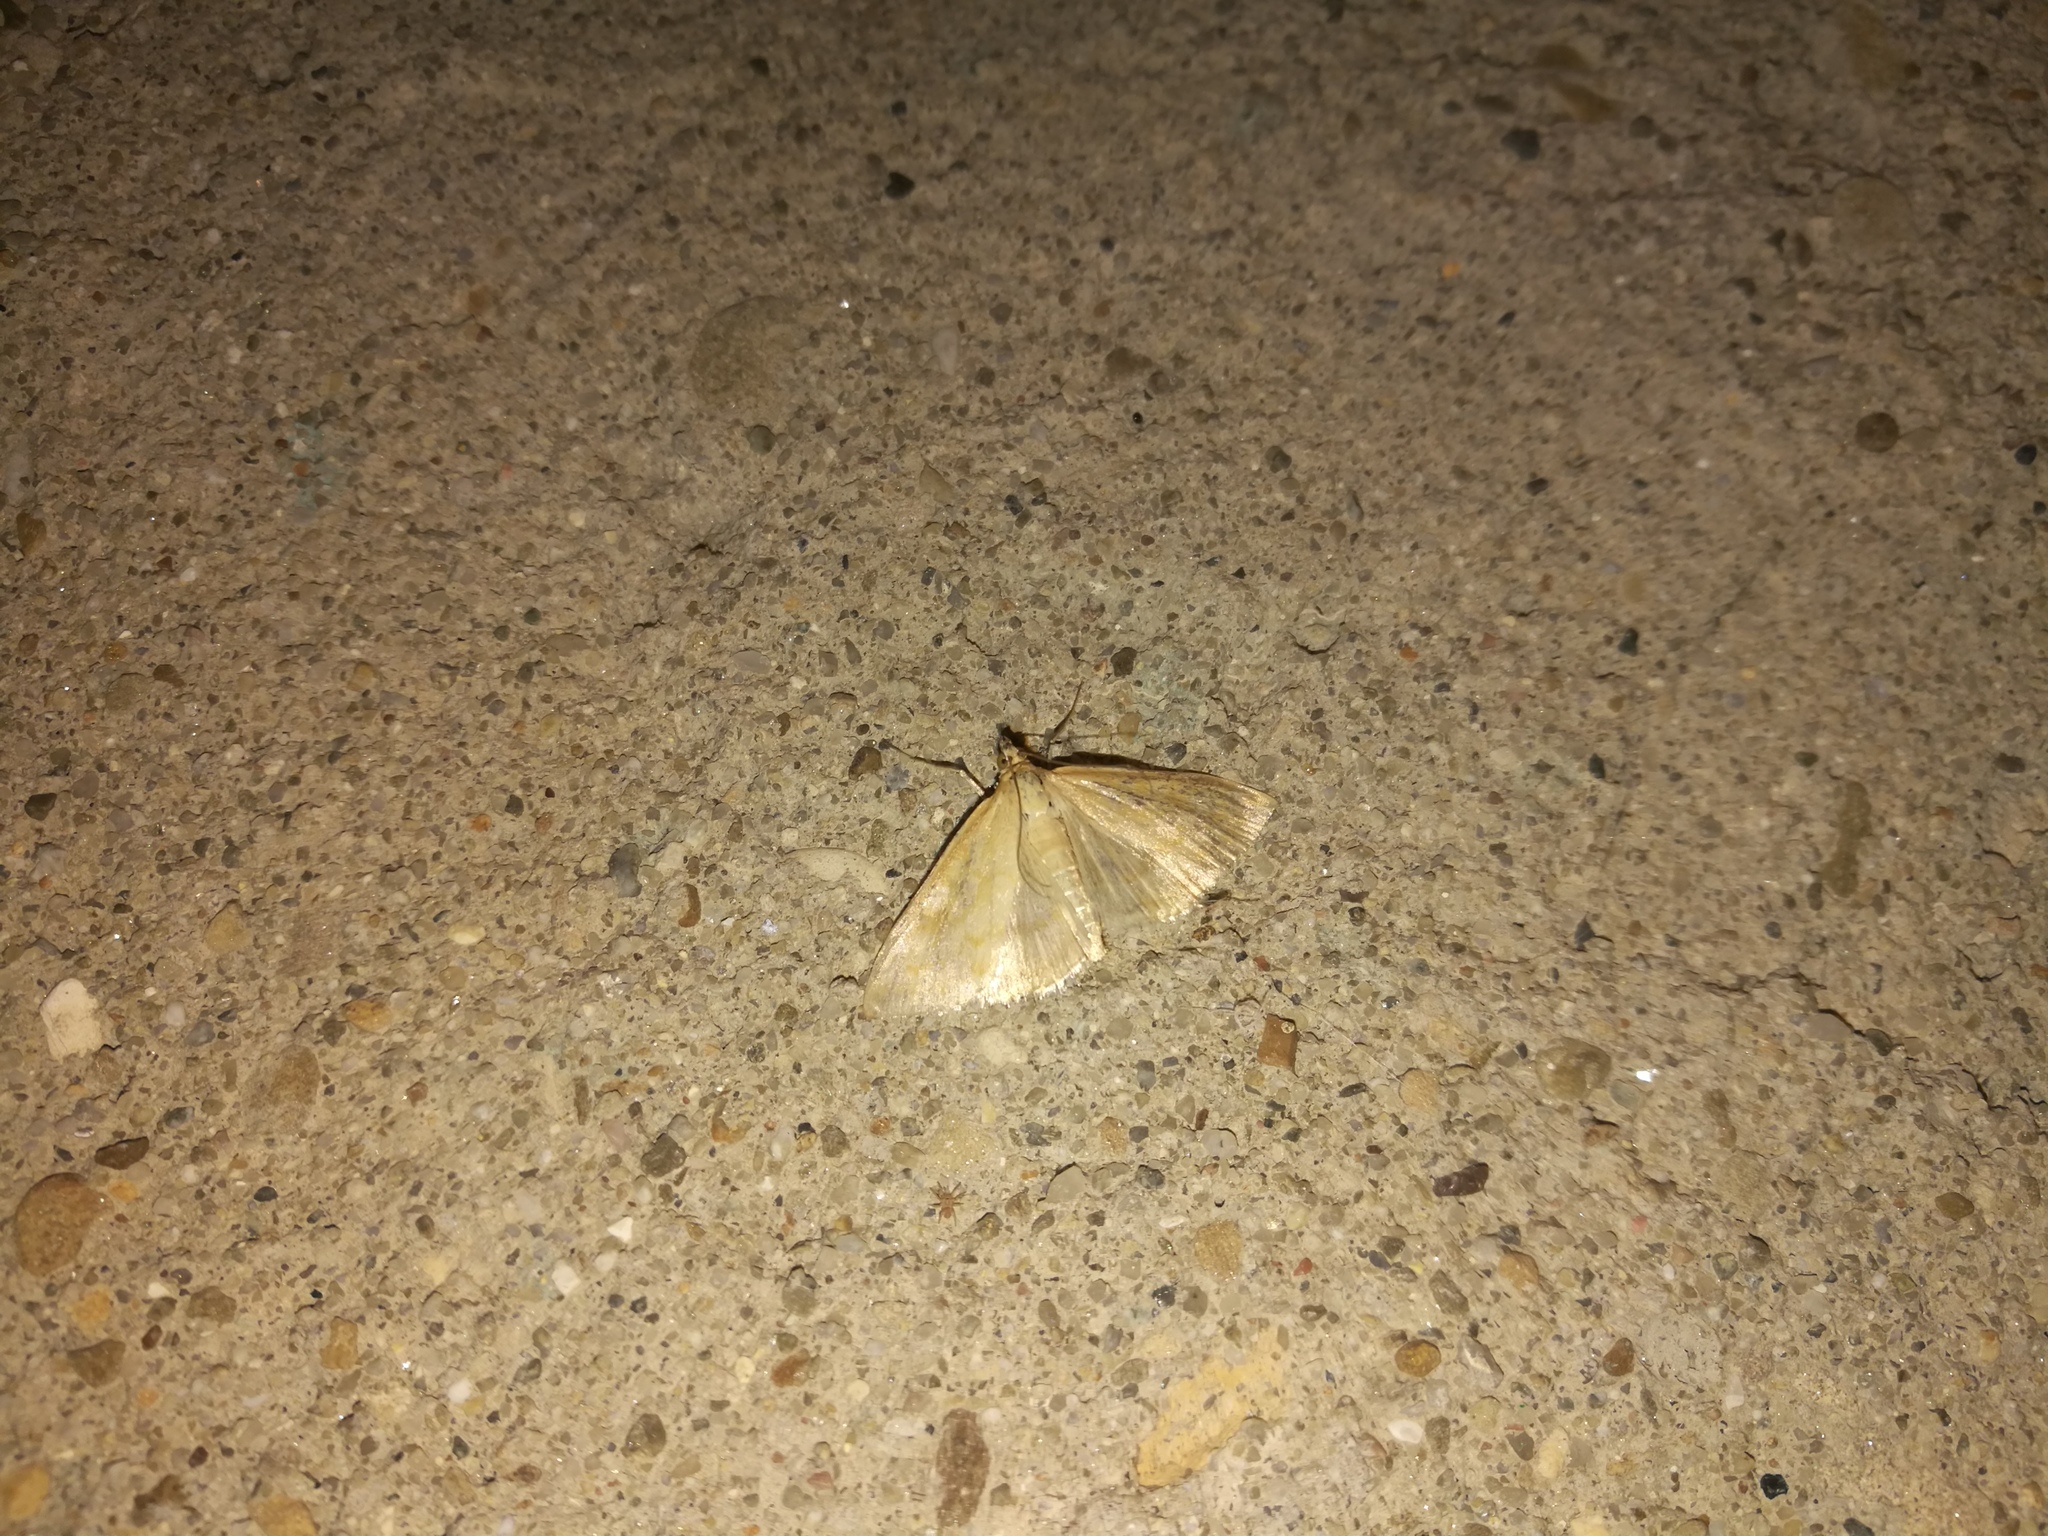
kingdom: Animalia
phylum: Arthropoda
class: Insecta
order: Lepidoptera
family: Crambidae
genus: Sitochroa
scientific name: Sitochroa verticalis
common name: Lesser pearl
